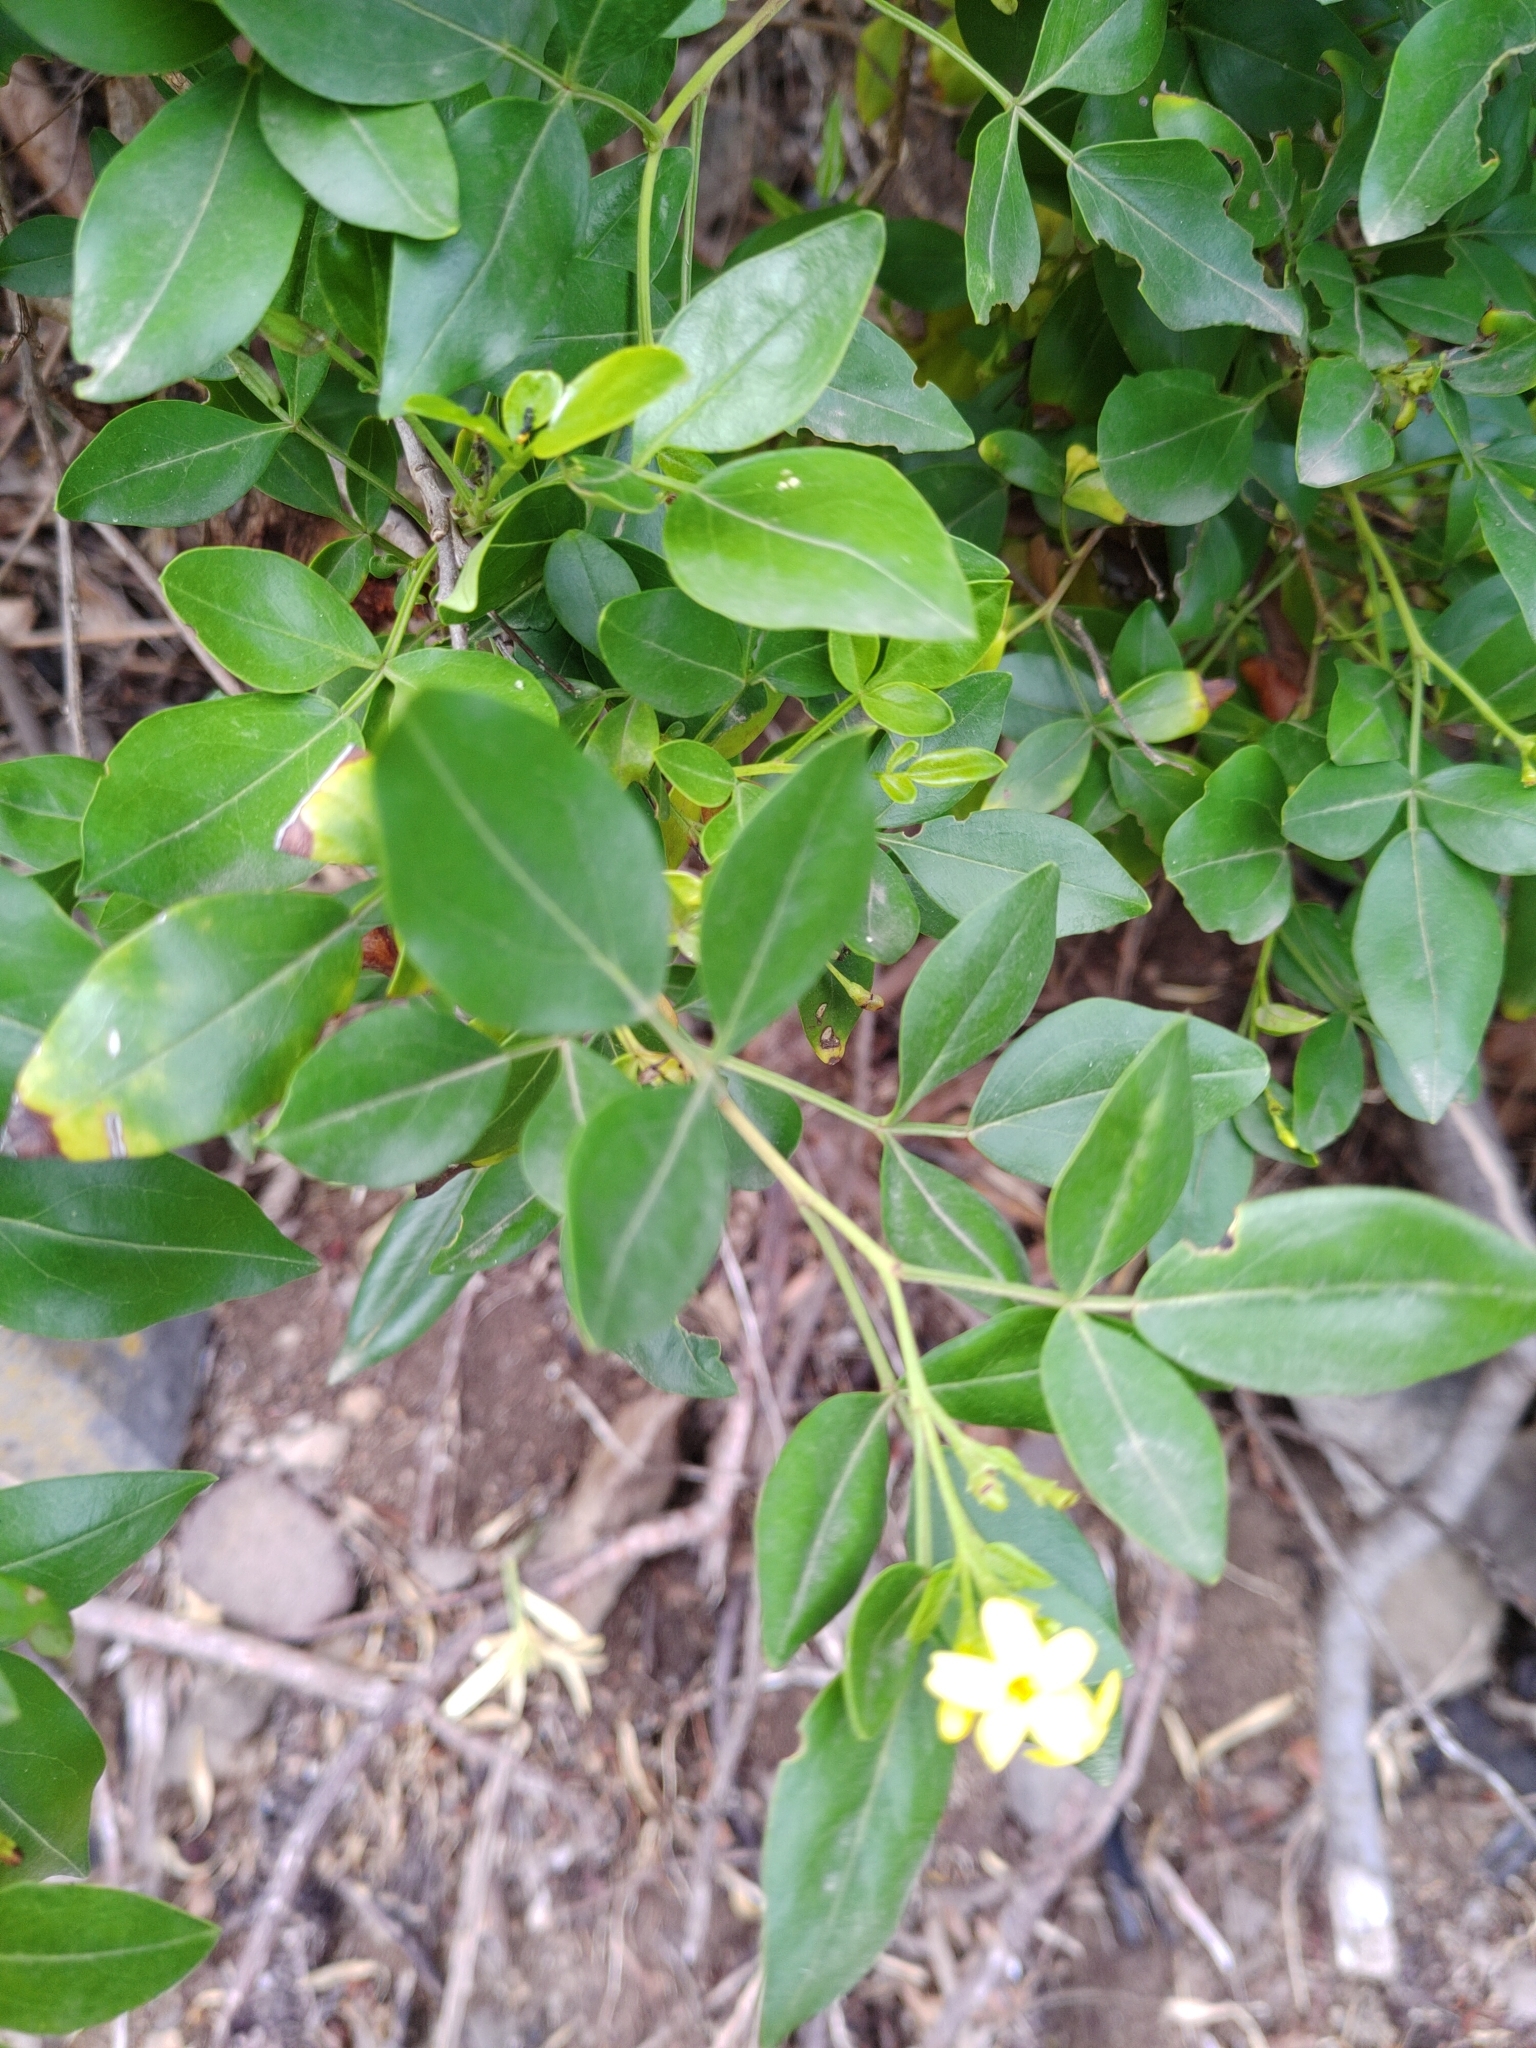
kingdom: Plantae
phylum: Tracheophyta
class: Magnoliopsida
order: Lamiales
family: Oleaceae
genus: Chrysojasminum
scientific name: Chrysojasminum odoratissimum
